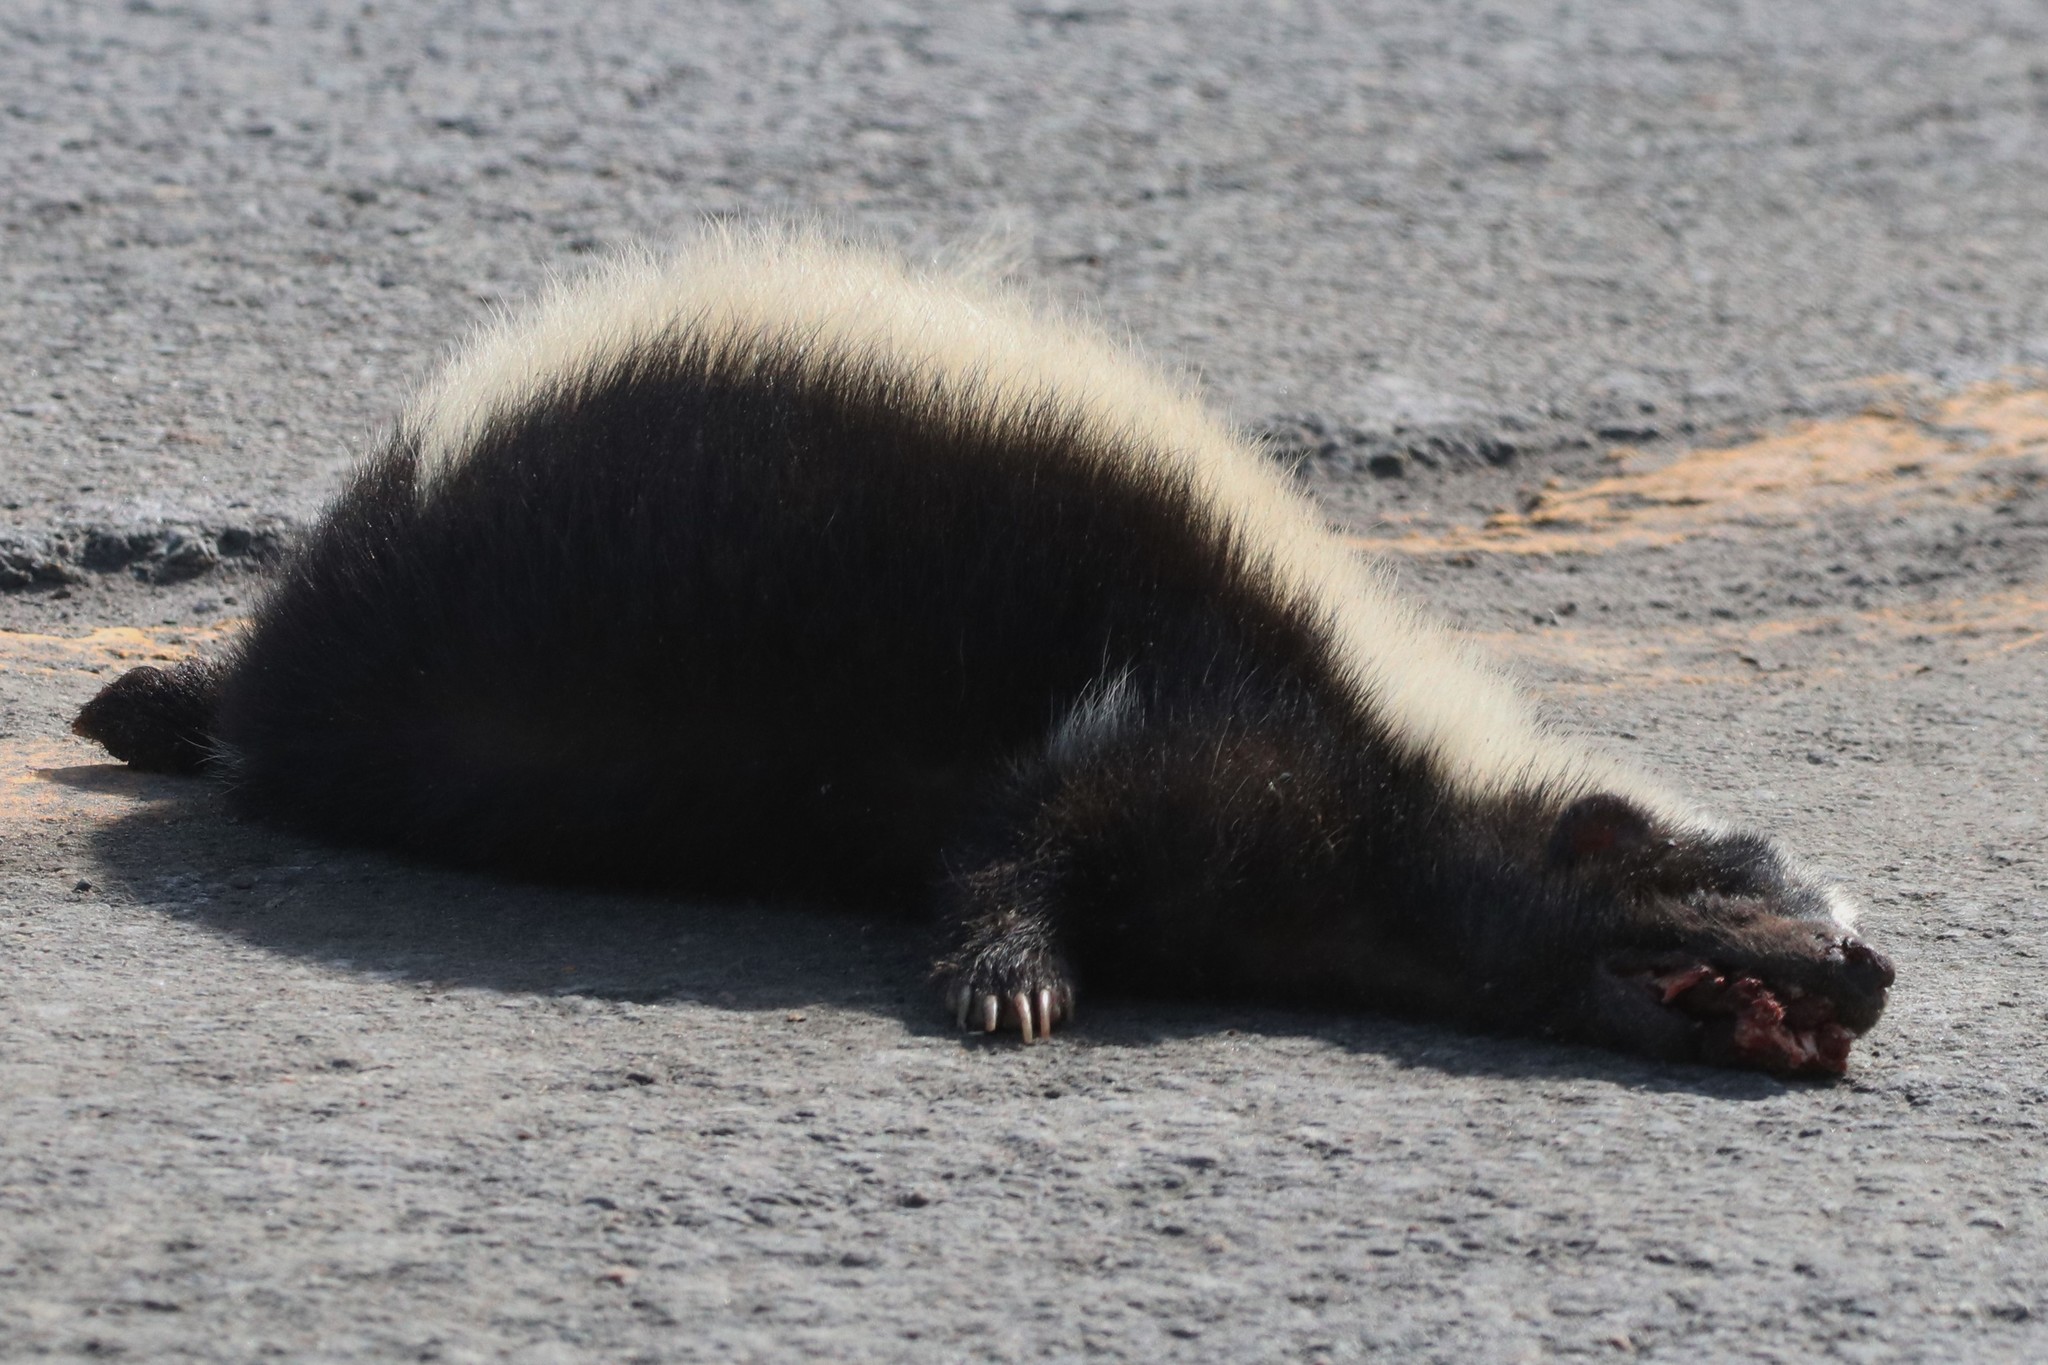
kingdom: Animalia
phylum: Chordata
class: Mammalia
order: Carnivora
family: Mephitidae
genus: Mephitis
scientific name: Mephitis mephitis
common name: Striped skunk
